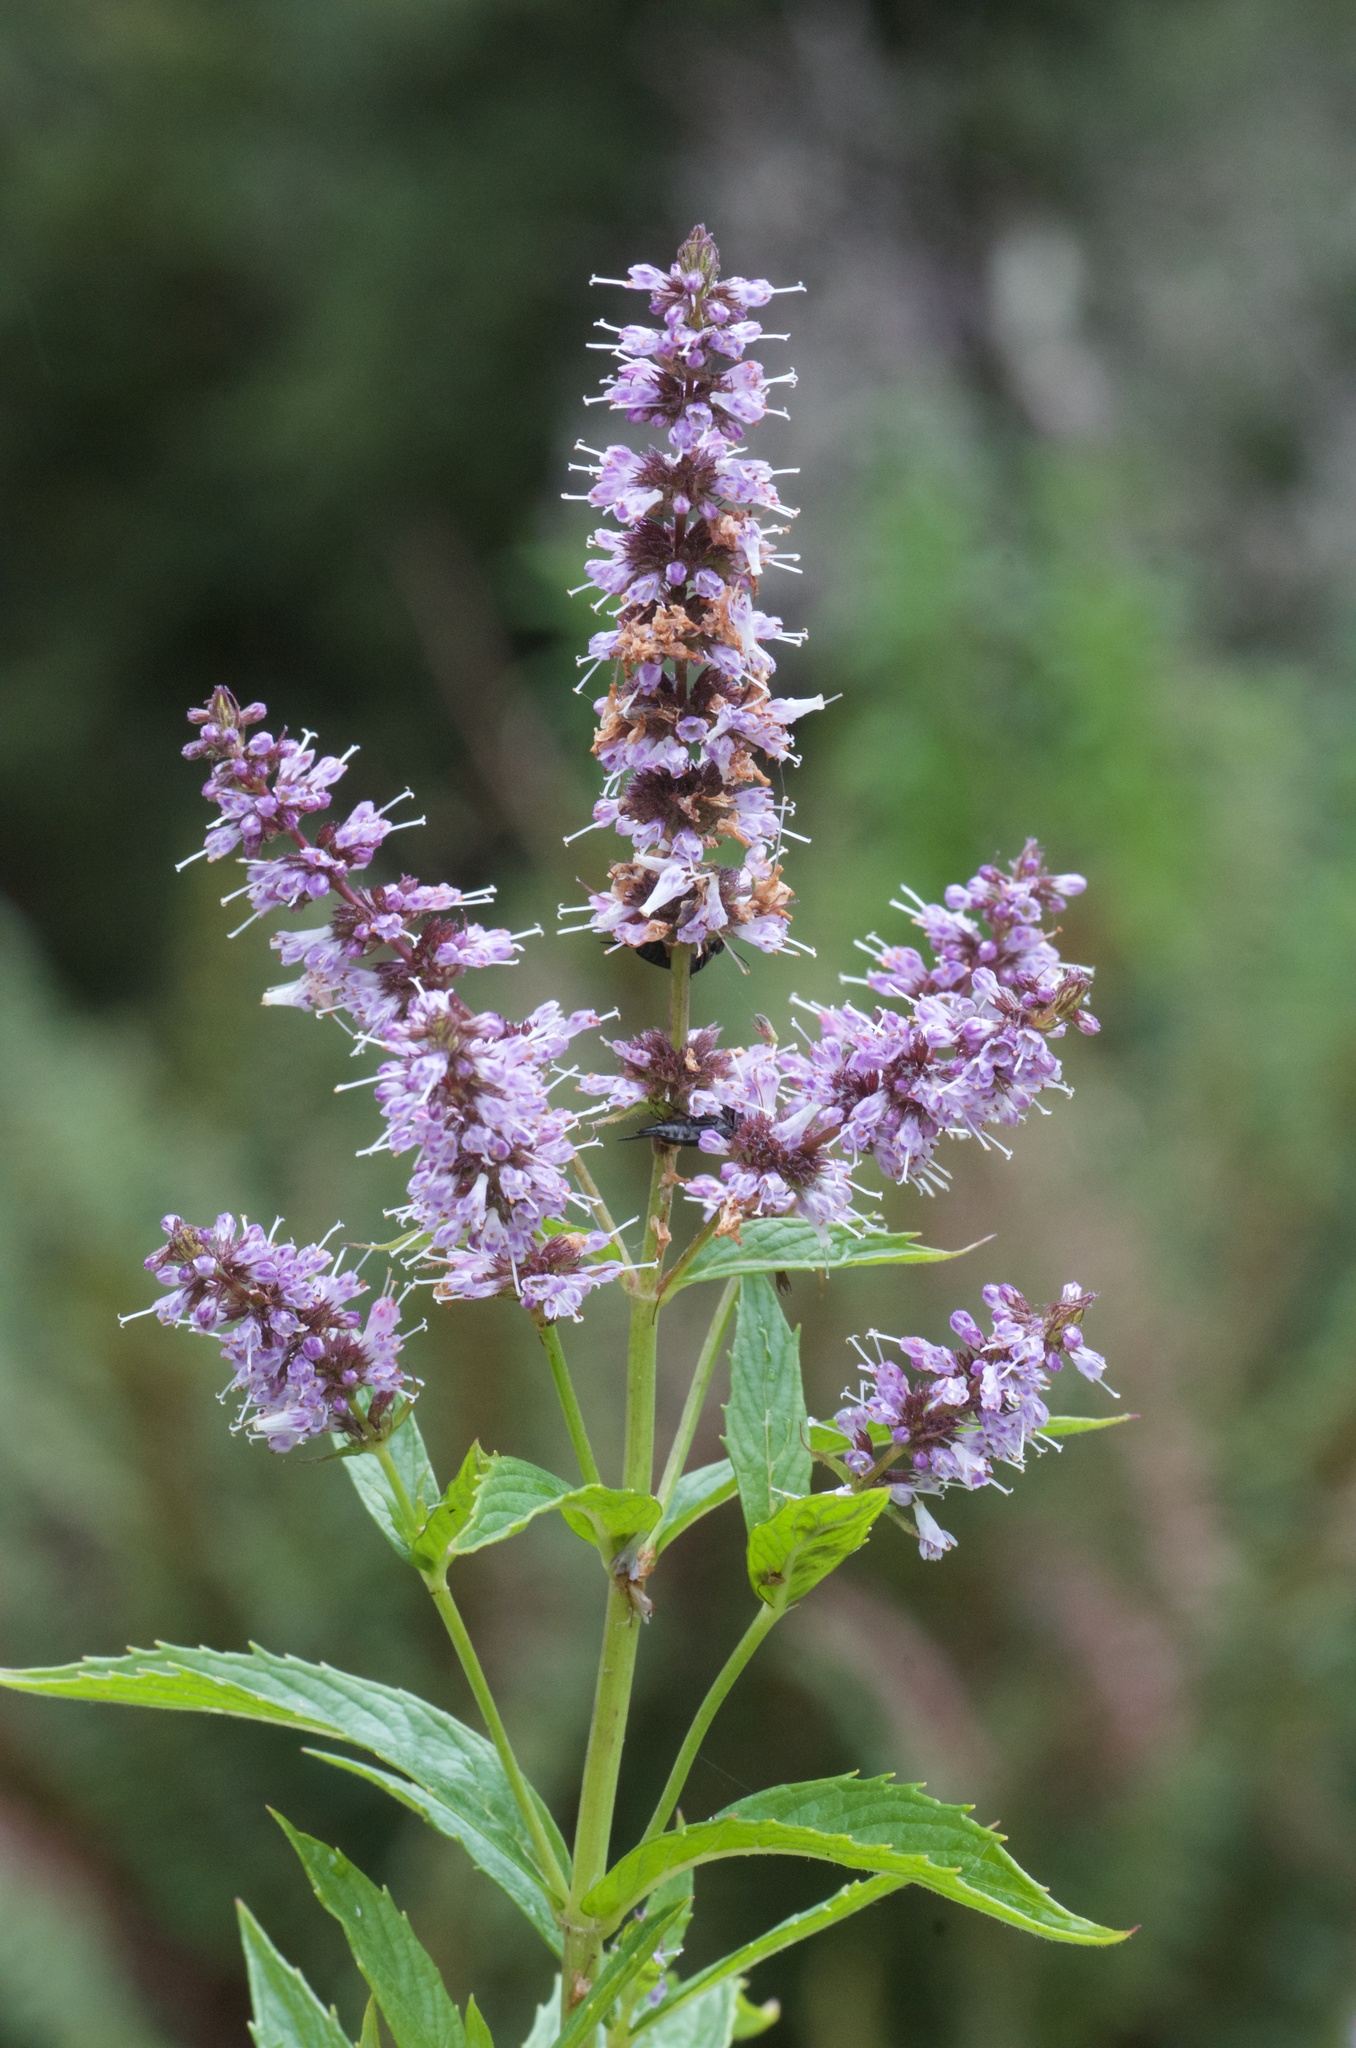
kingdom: Plantae
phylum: Tracheophyta
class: Magnoliopsida
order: Lamiales
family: Lamiaceae
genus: Mentha
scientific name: Mentha spicata
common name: Spearmint
